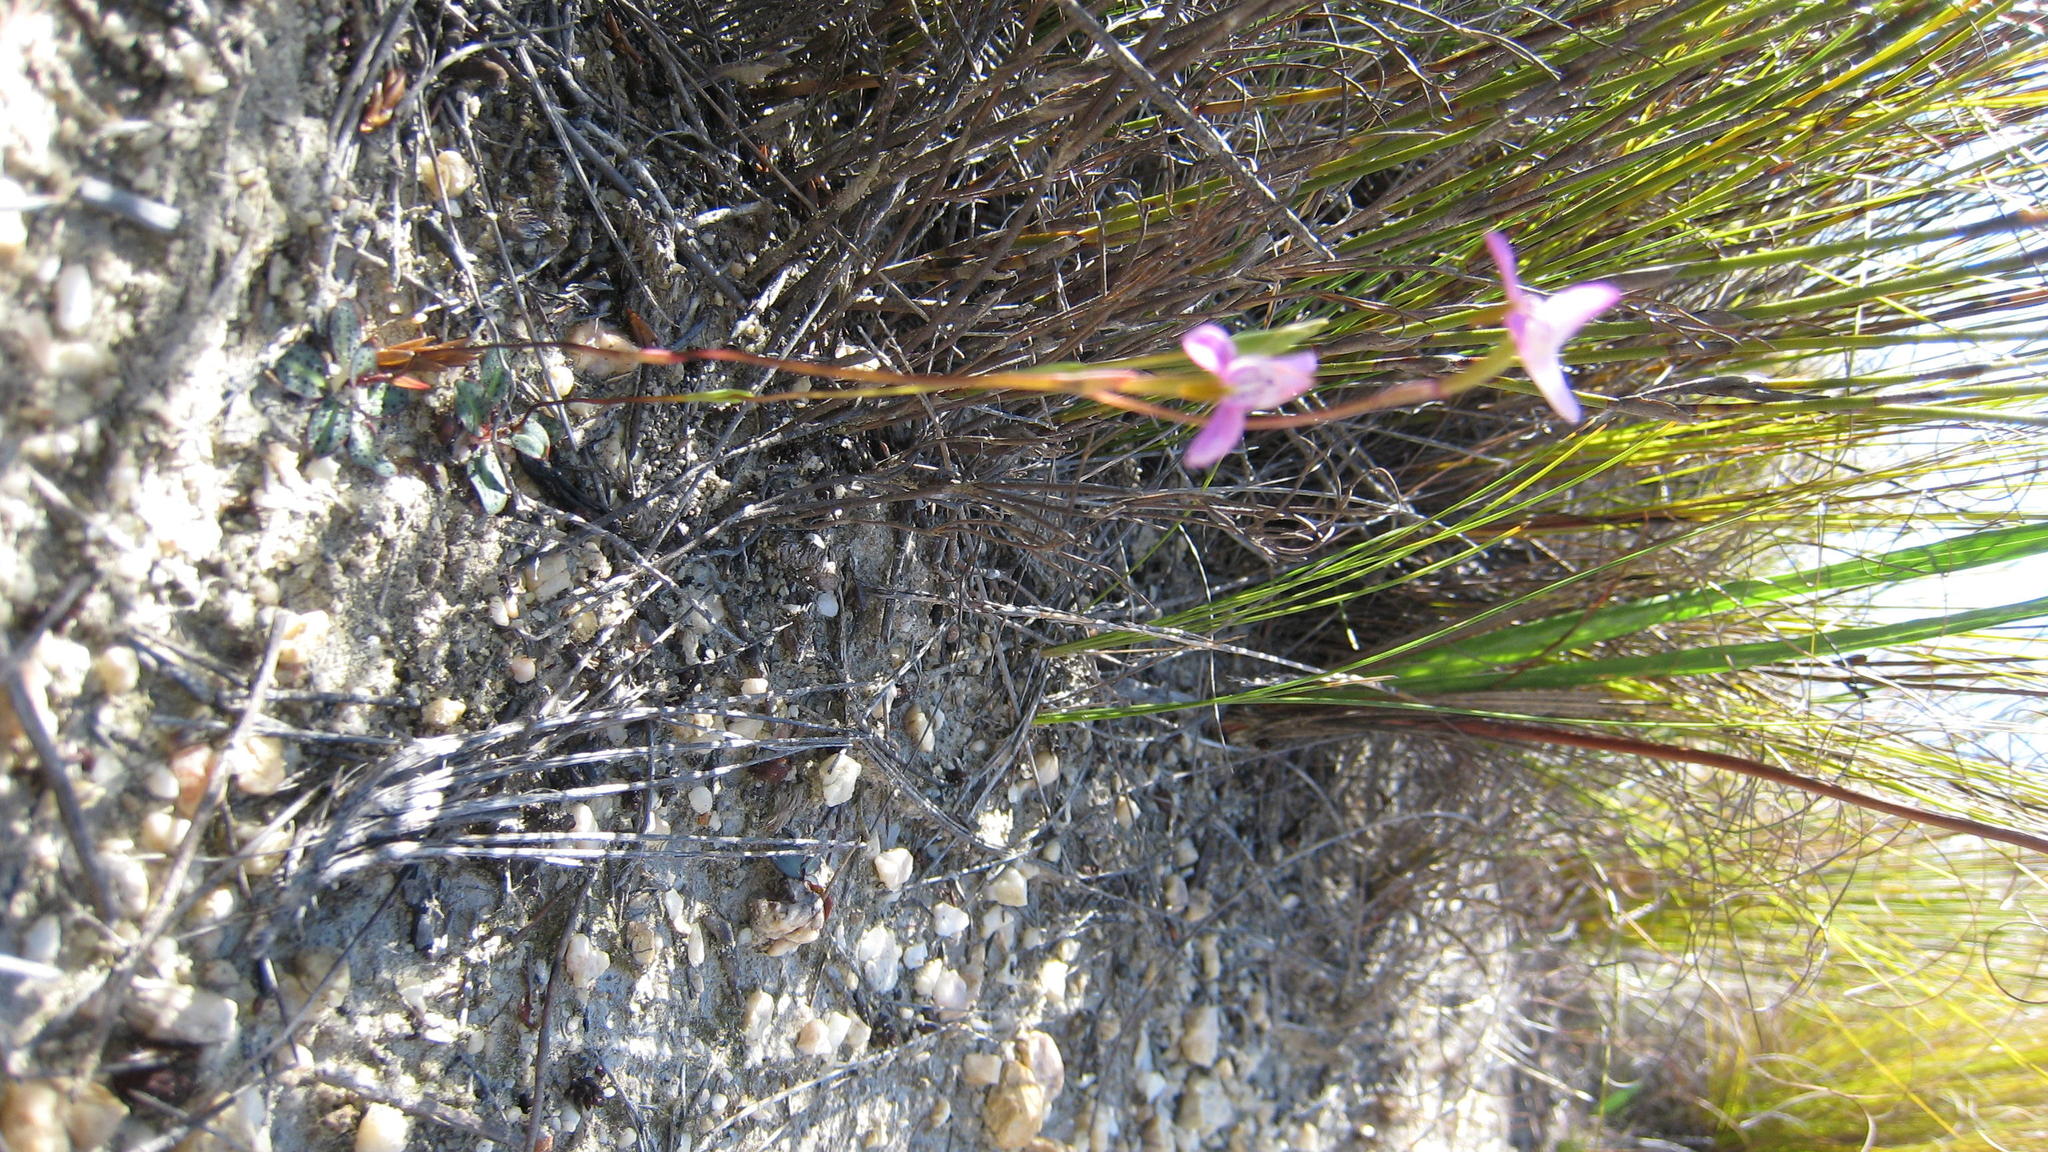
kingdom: Plantae
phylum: Tracheophyta
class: Liliopsida
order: Asparagales
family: Orchidaceae
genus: Disa
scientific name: Disa bifida
